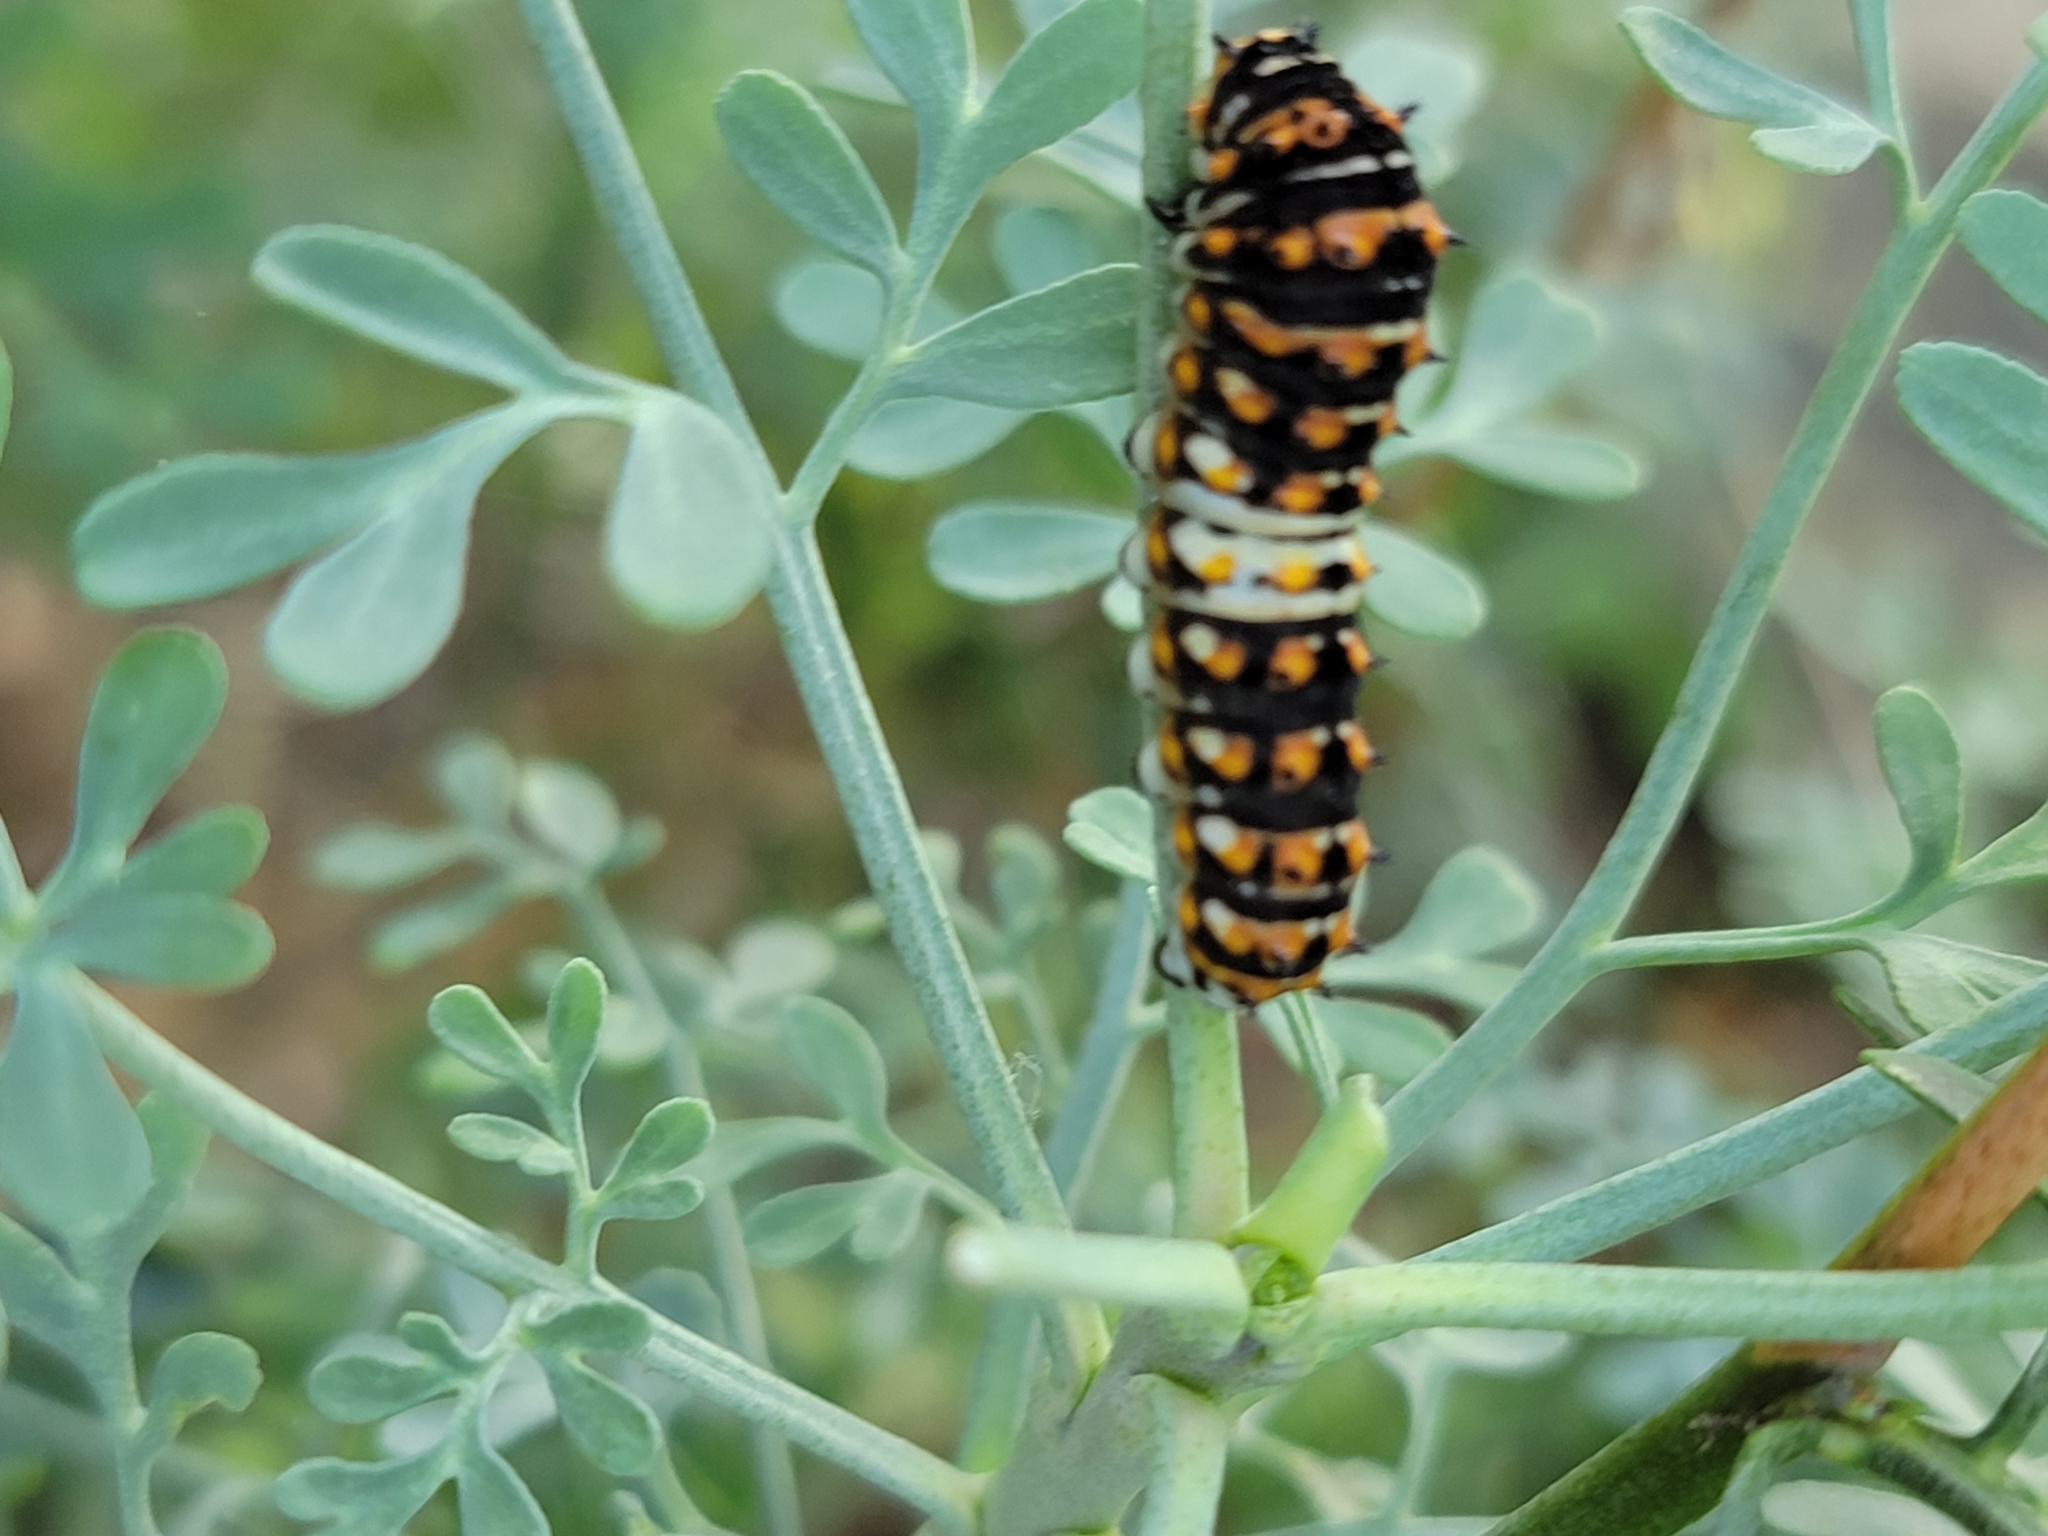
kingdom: Animalia
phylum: Arthropoda
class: Insecta
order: Lepidoptera
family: Papilionidae
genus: Papilio
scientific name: Papilio polyxenes
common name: Black swallowtail
